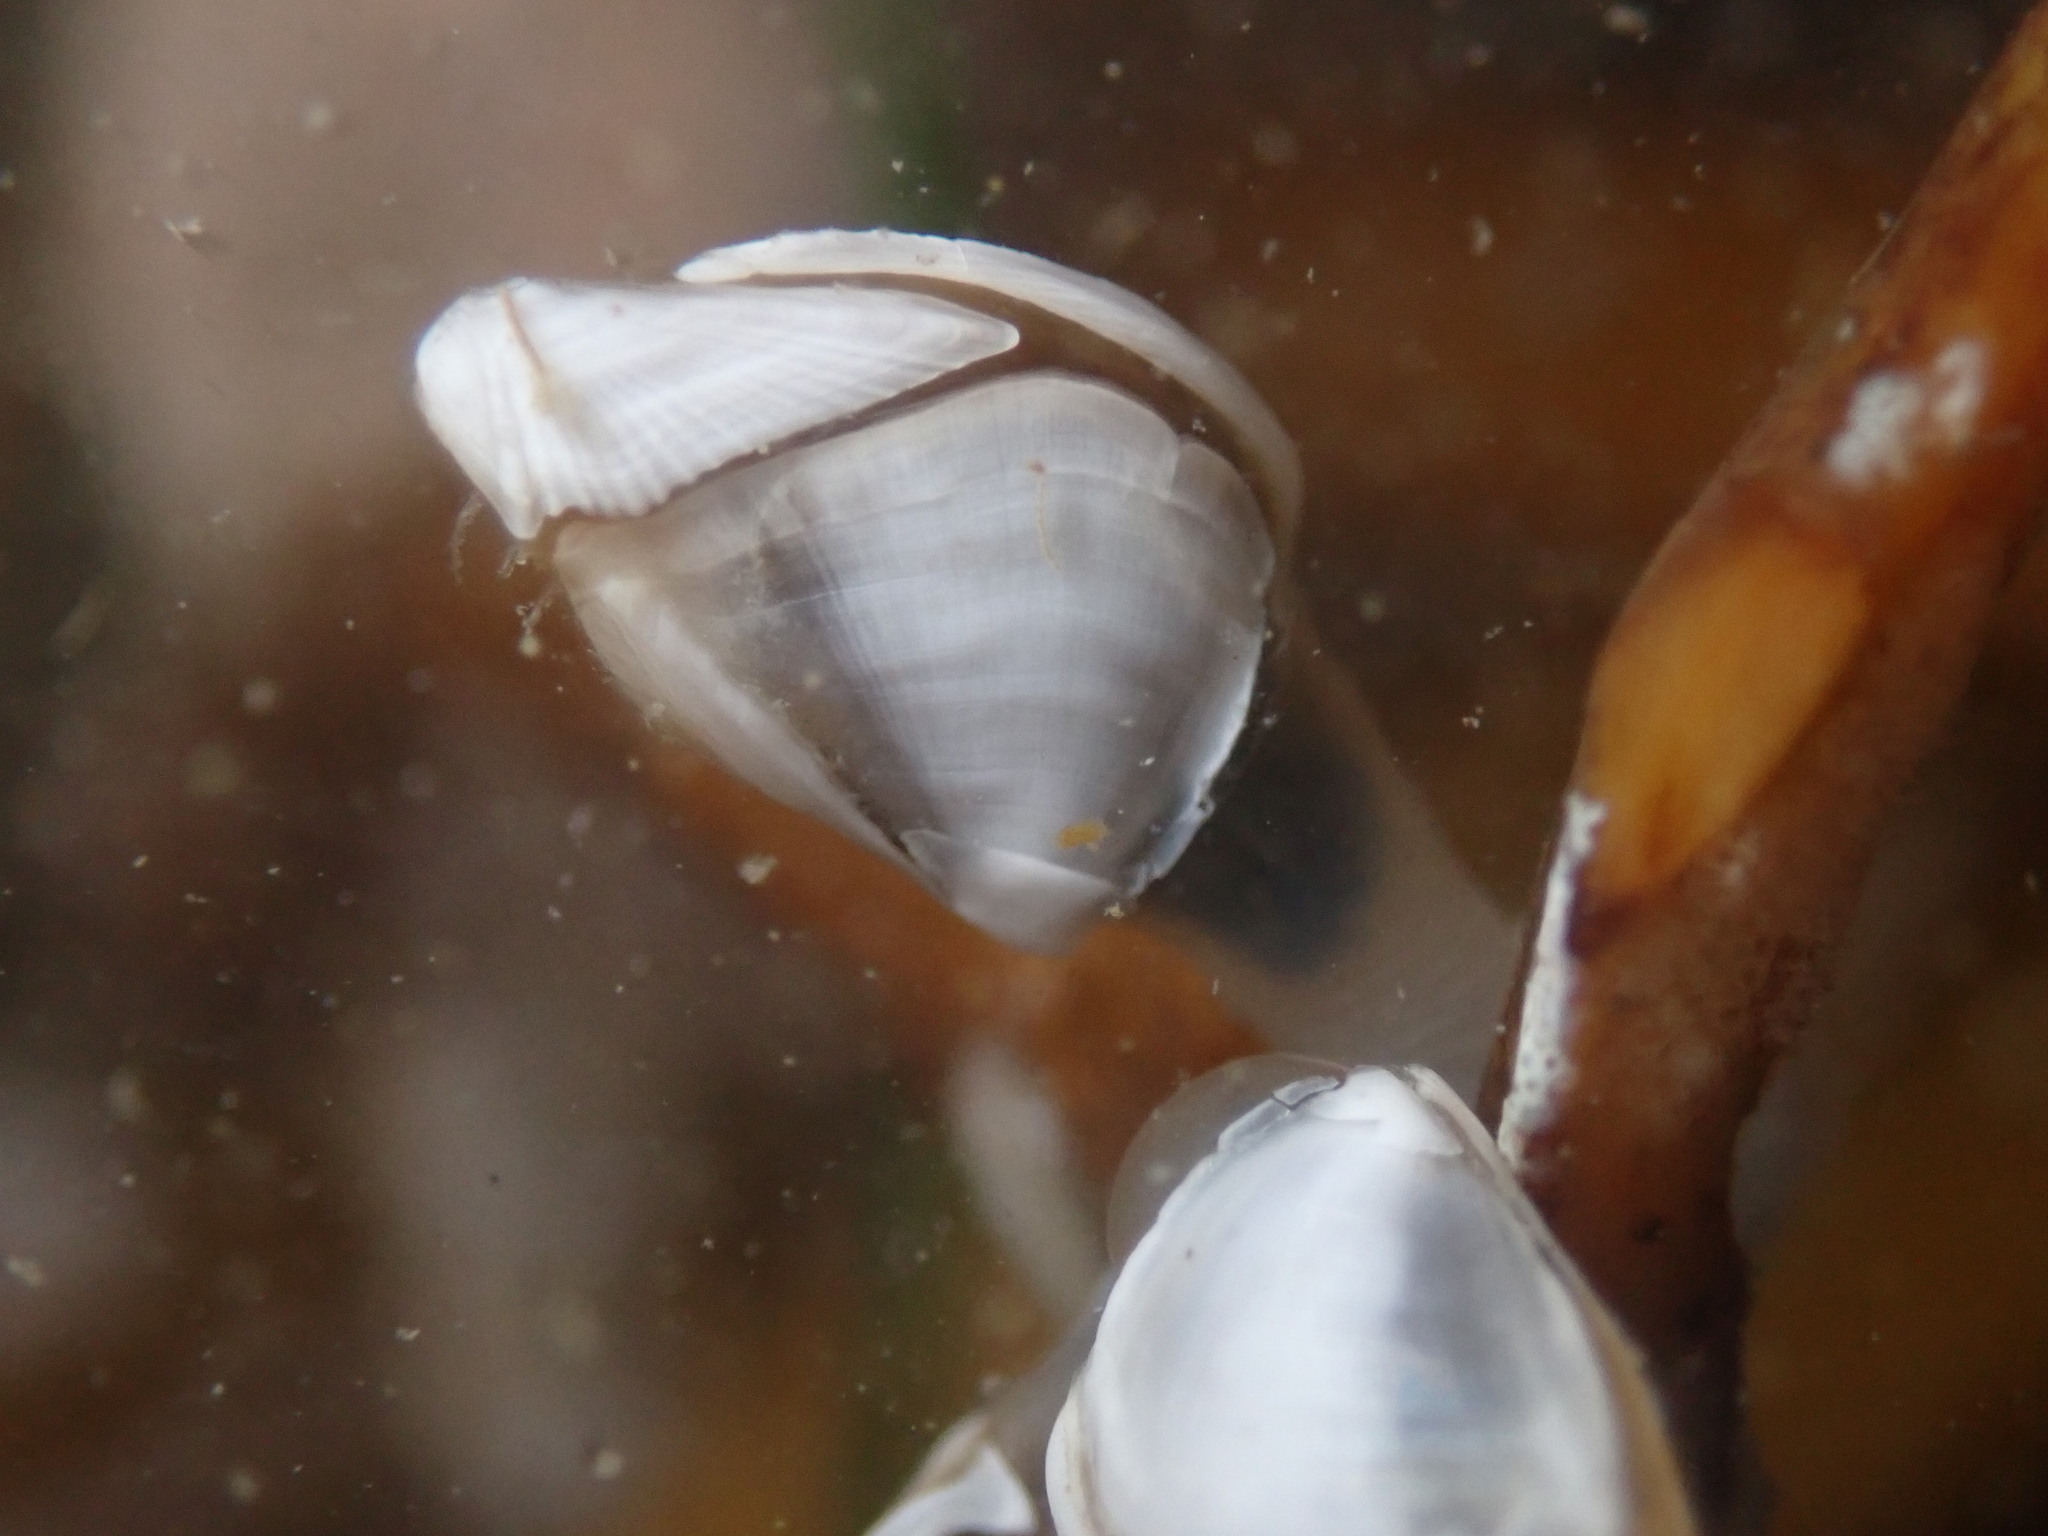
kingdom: Animalia
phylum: Arthropoda
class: Maxillopoda
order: Pedunculata
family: Lepadidae
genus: Lepas
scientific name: Lepas pacifica
